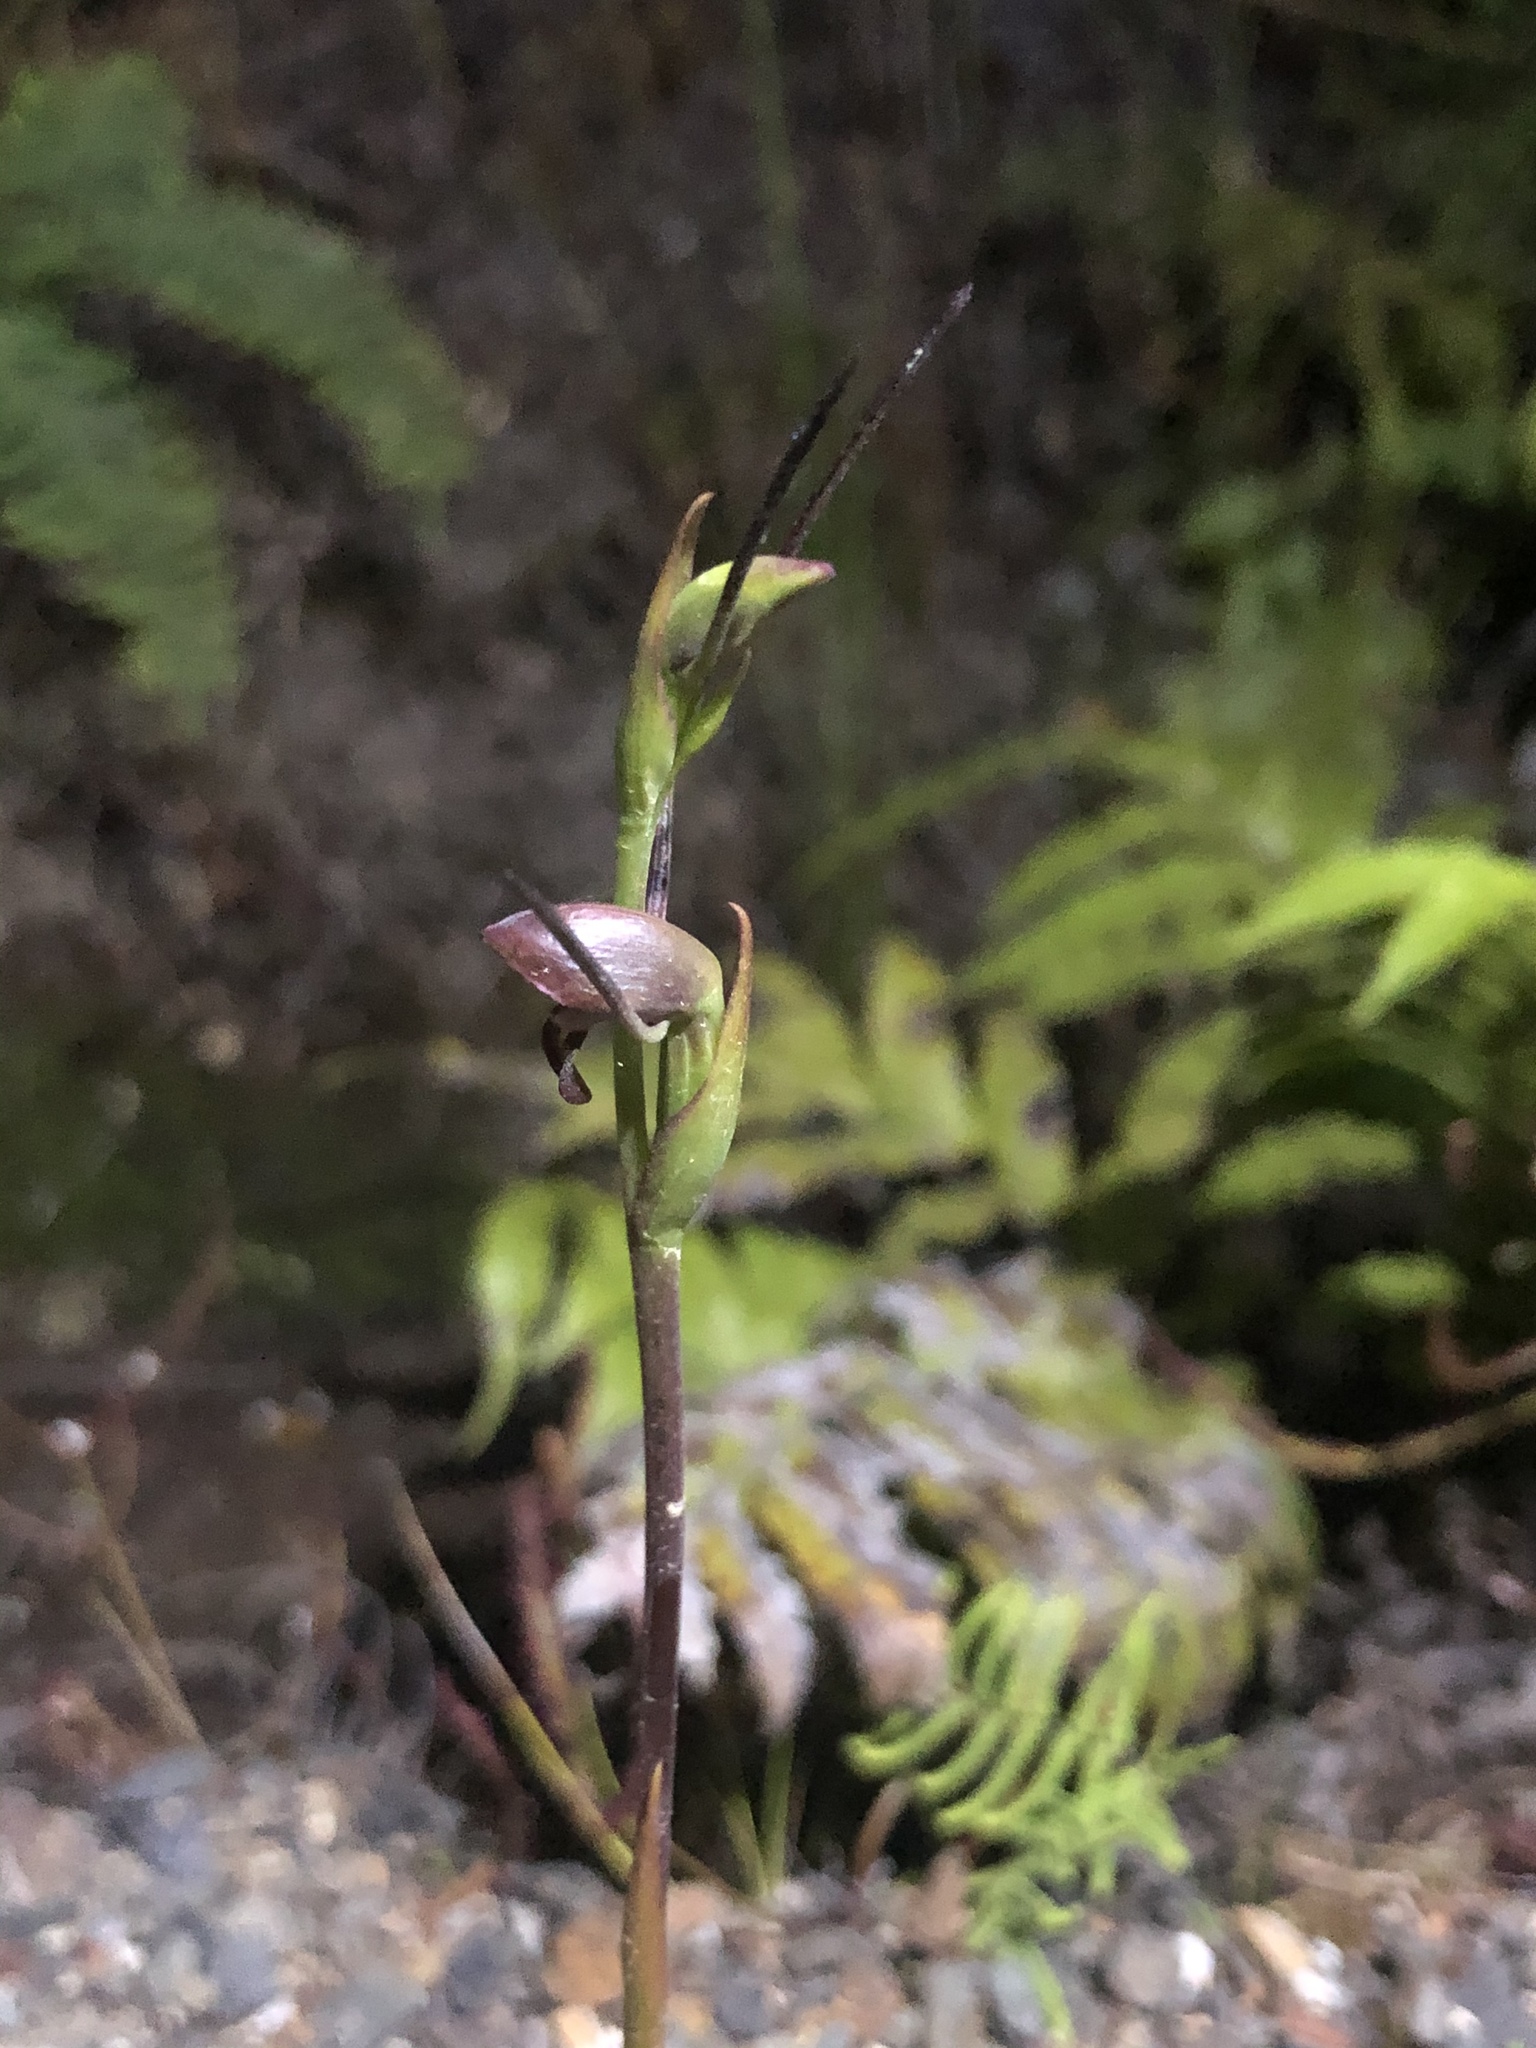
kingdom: Plantae
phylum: Tracheophyta
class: Liliopsida
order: Asparagales
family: Orchidaceae
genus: Orthoceras
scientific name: Orthoceras novae-zeelandiae
